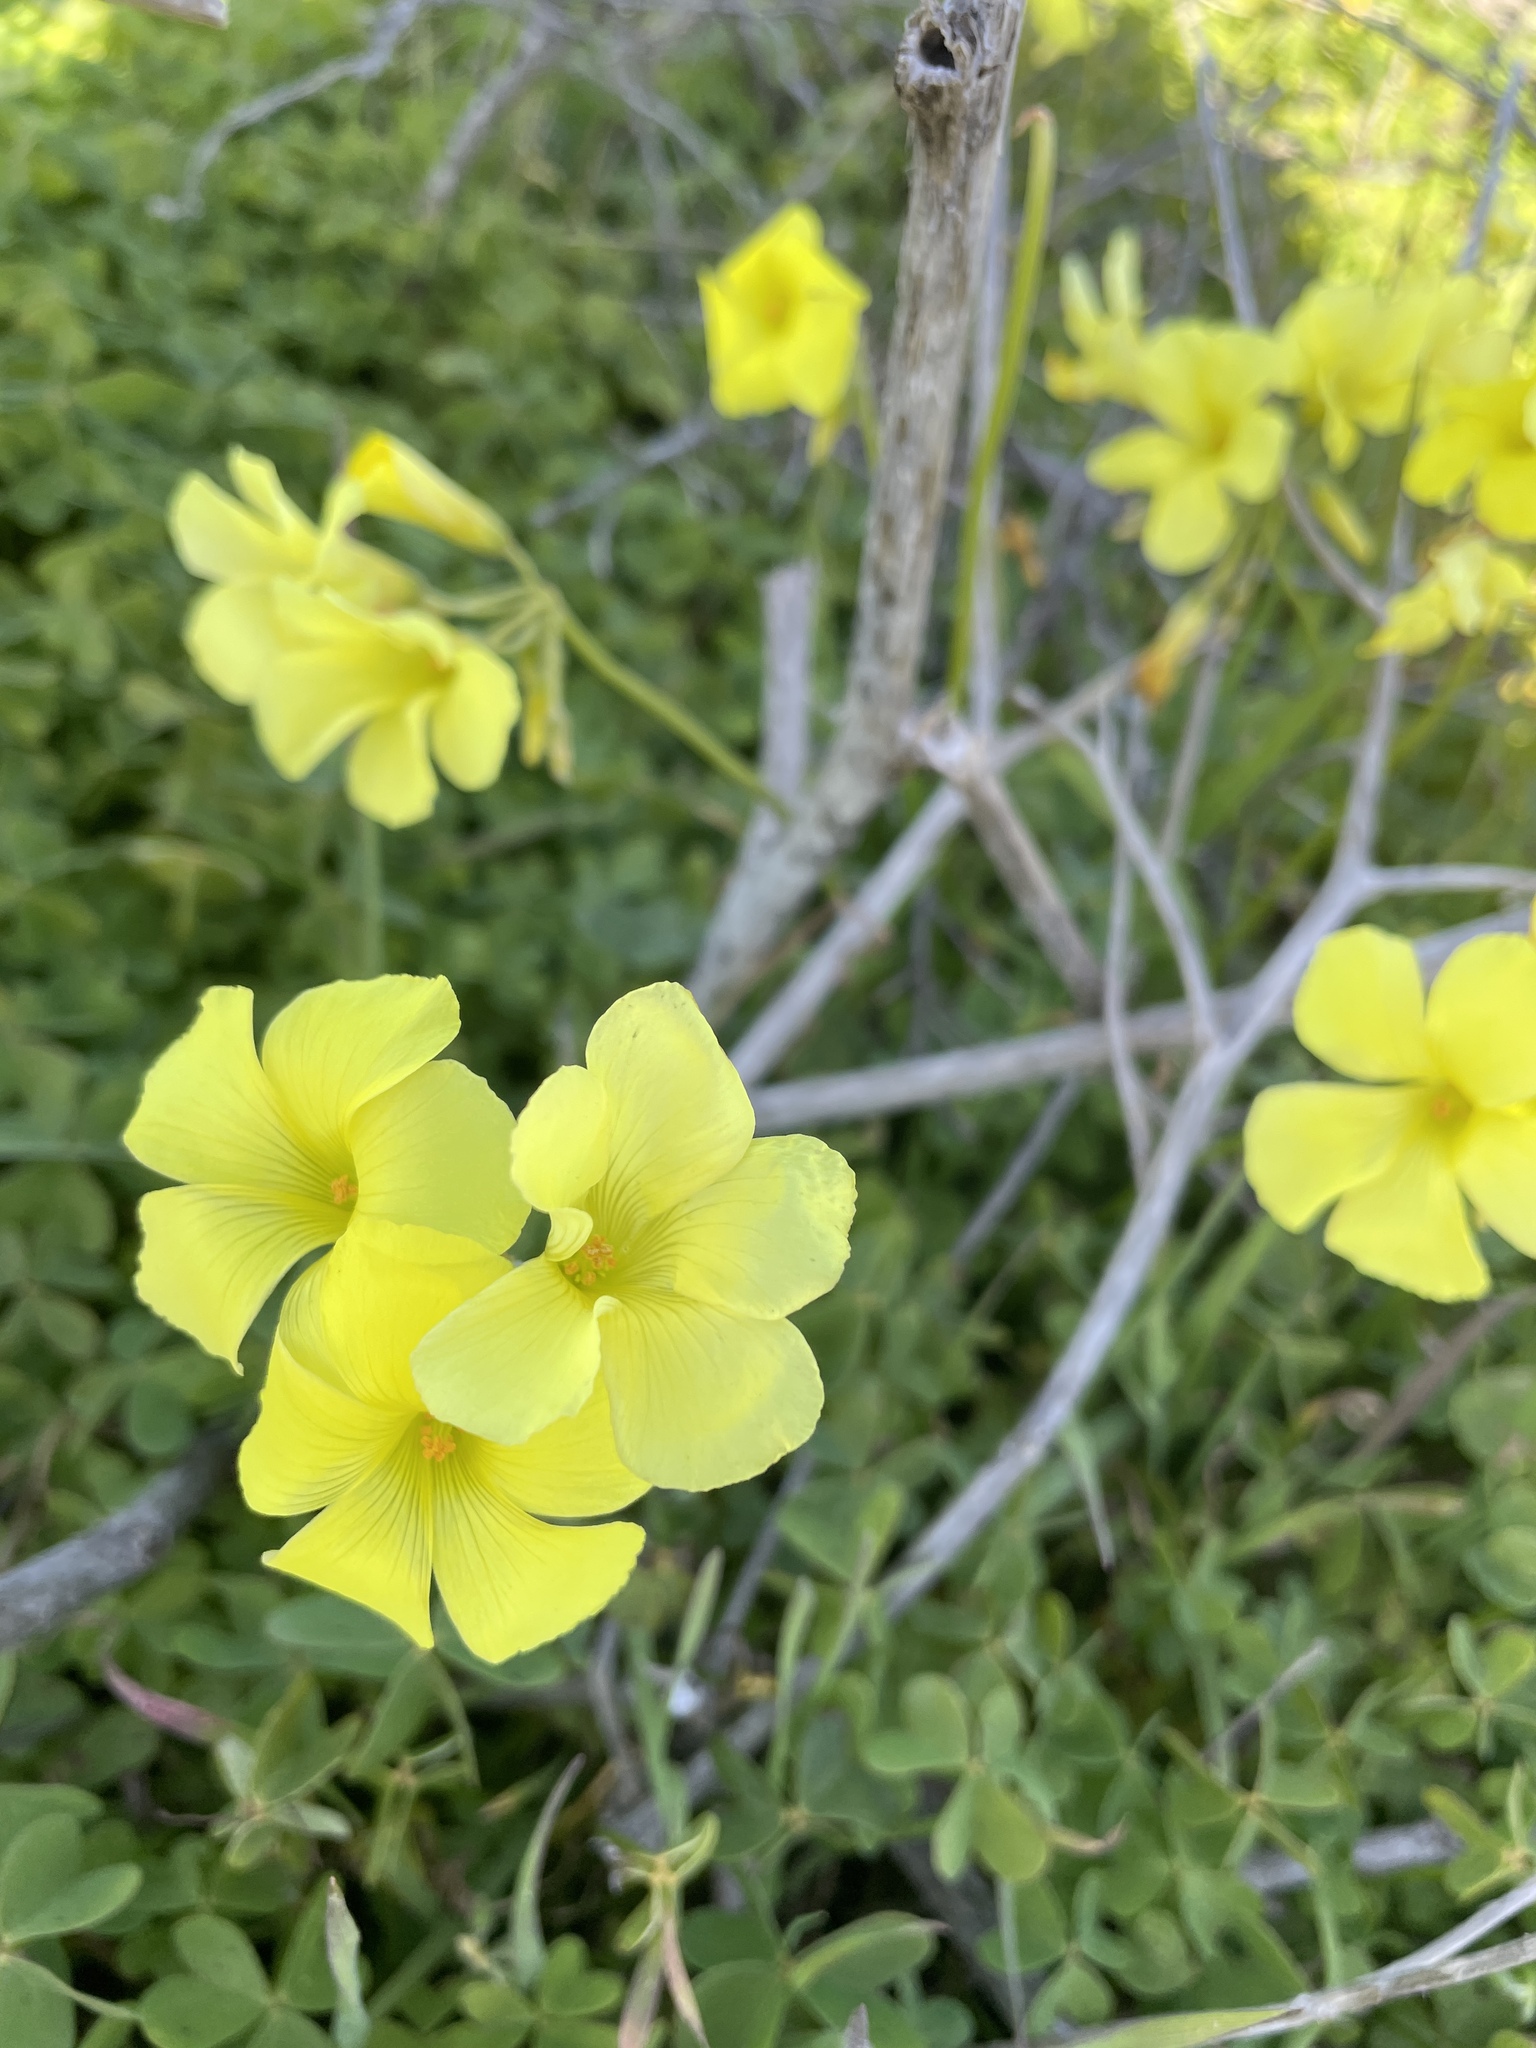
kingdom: Plantae
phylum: Tracheophyta
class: Magnoliopsida
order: Oxalidales
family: Oxalidaceae
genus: Oxalis
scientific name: Oxalis pes-caprae
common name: Bermuda-buttercup
